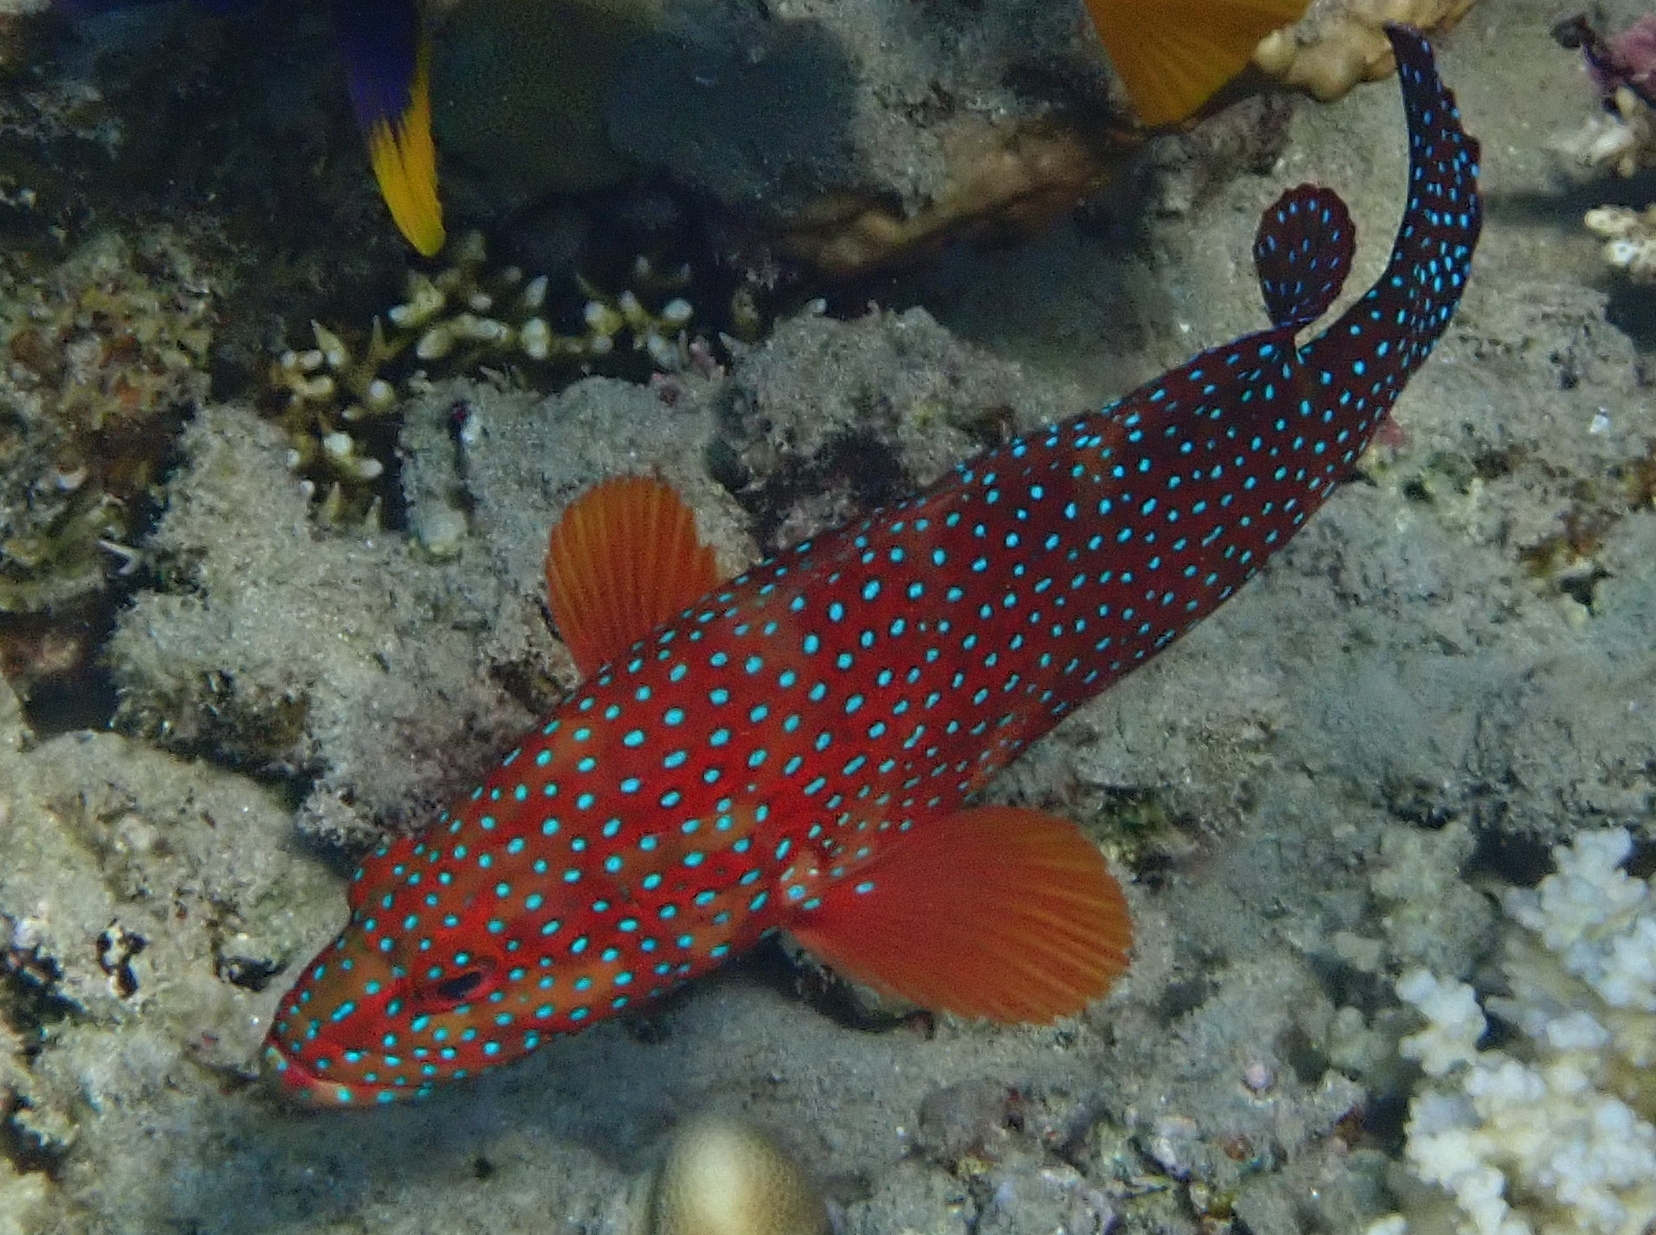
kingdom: Animalia
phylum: Chordata
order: Perciformes
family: Serranidae
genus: Cephalopholis
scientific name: Cephalopholis miniata
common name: Coral hind
